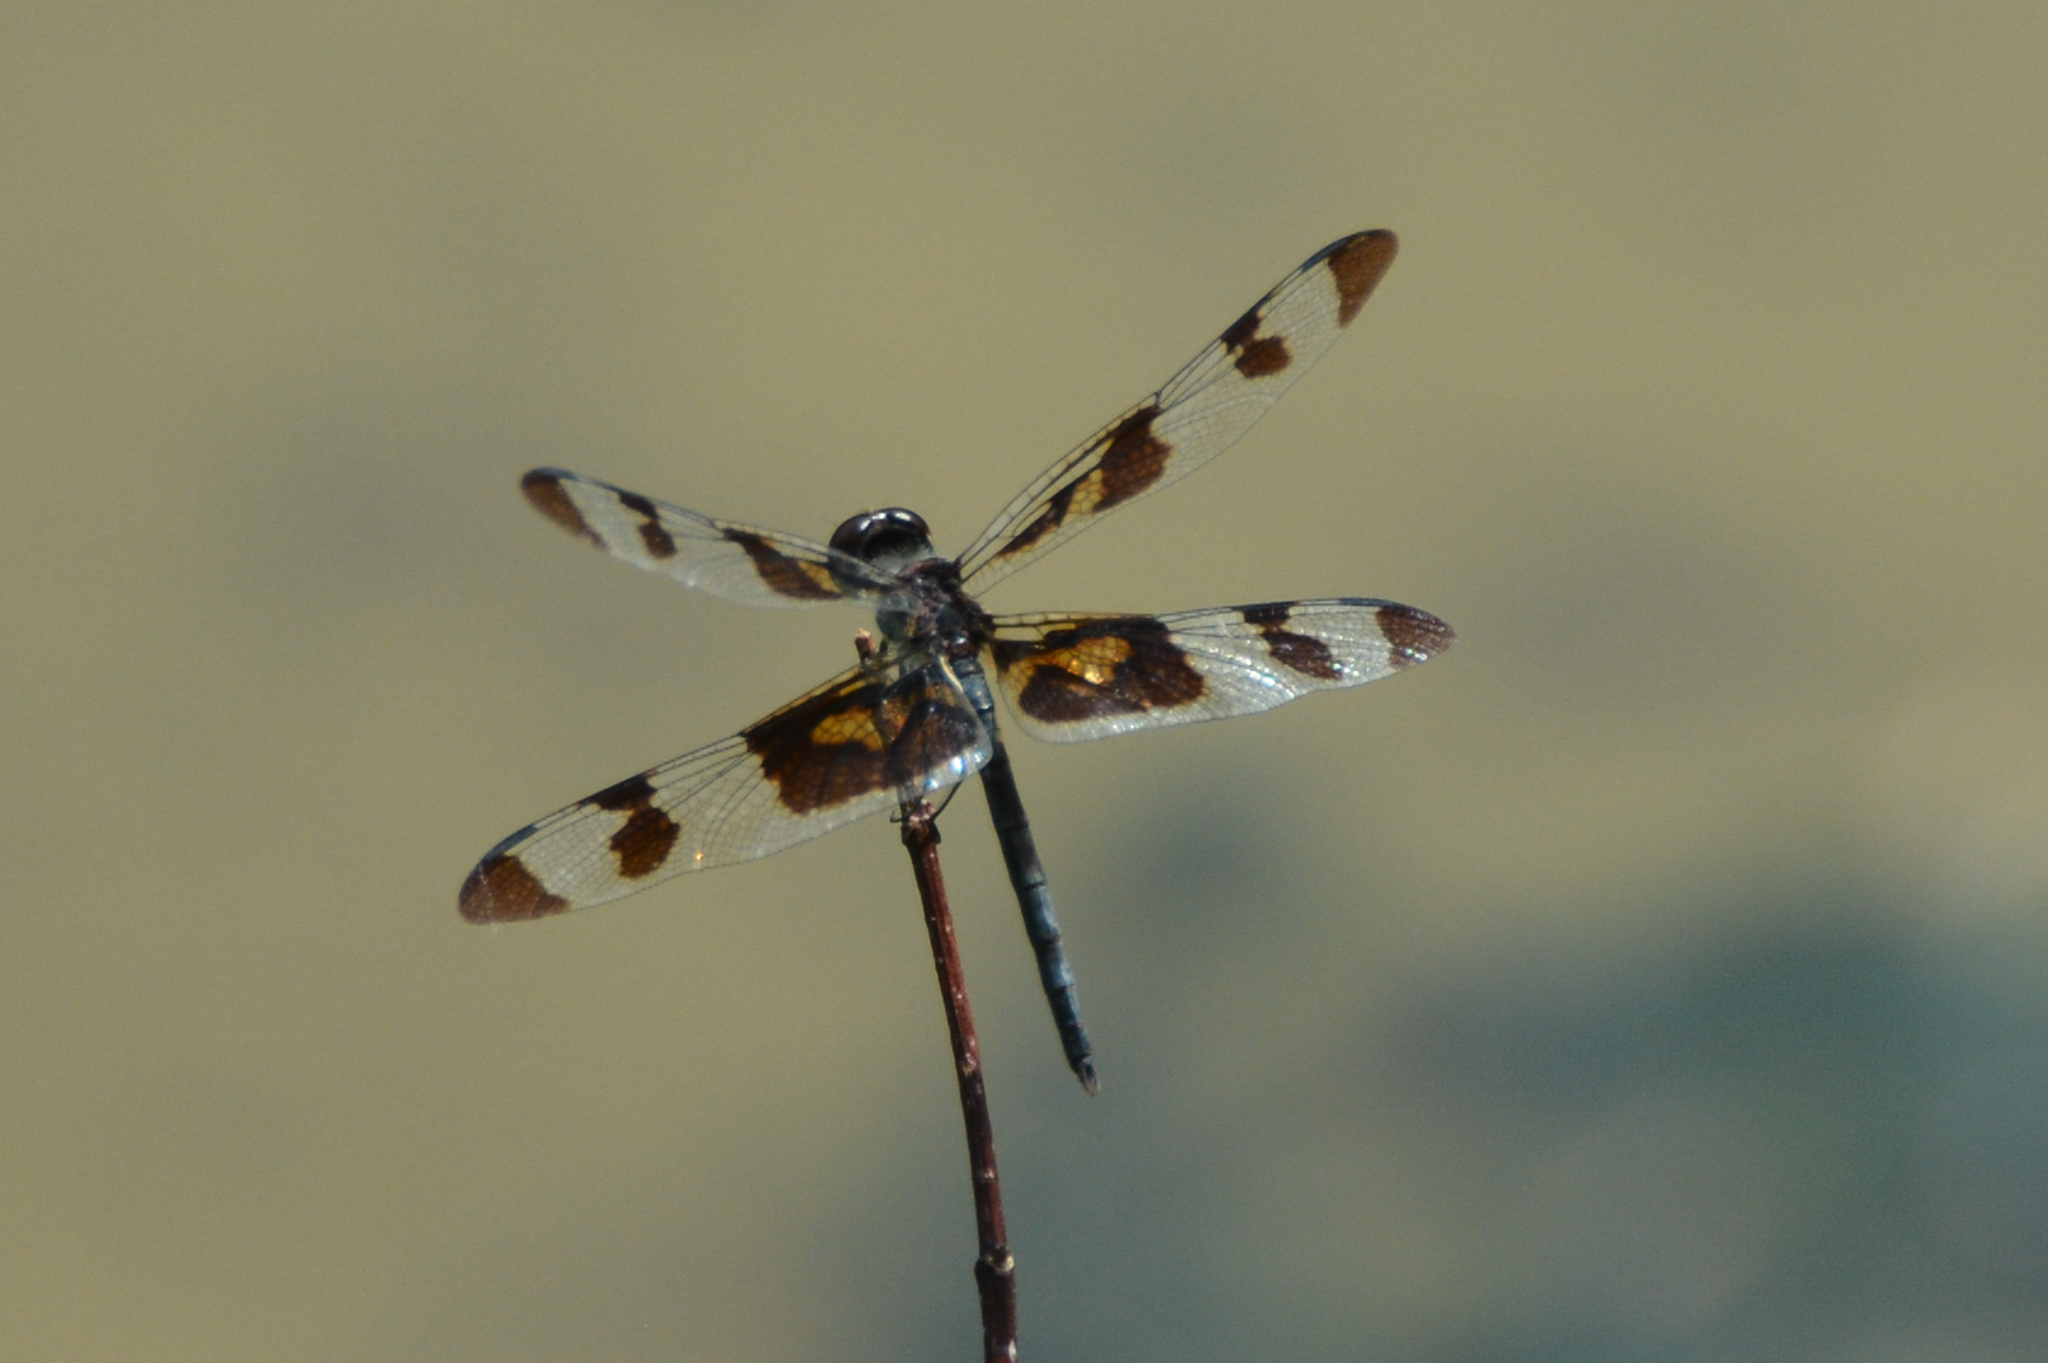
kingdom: Animalia
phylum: Arthropoda
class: Insecta
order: Odonata
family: Libellulidae
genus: Celithemis
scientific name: Celithemis fasciata
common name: Banded pennant
